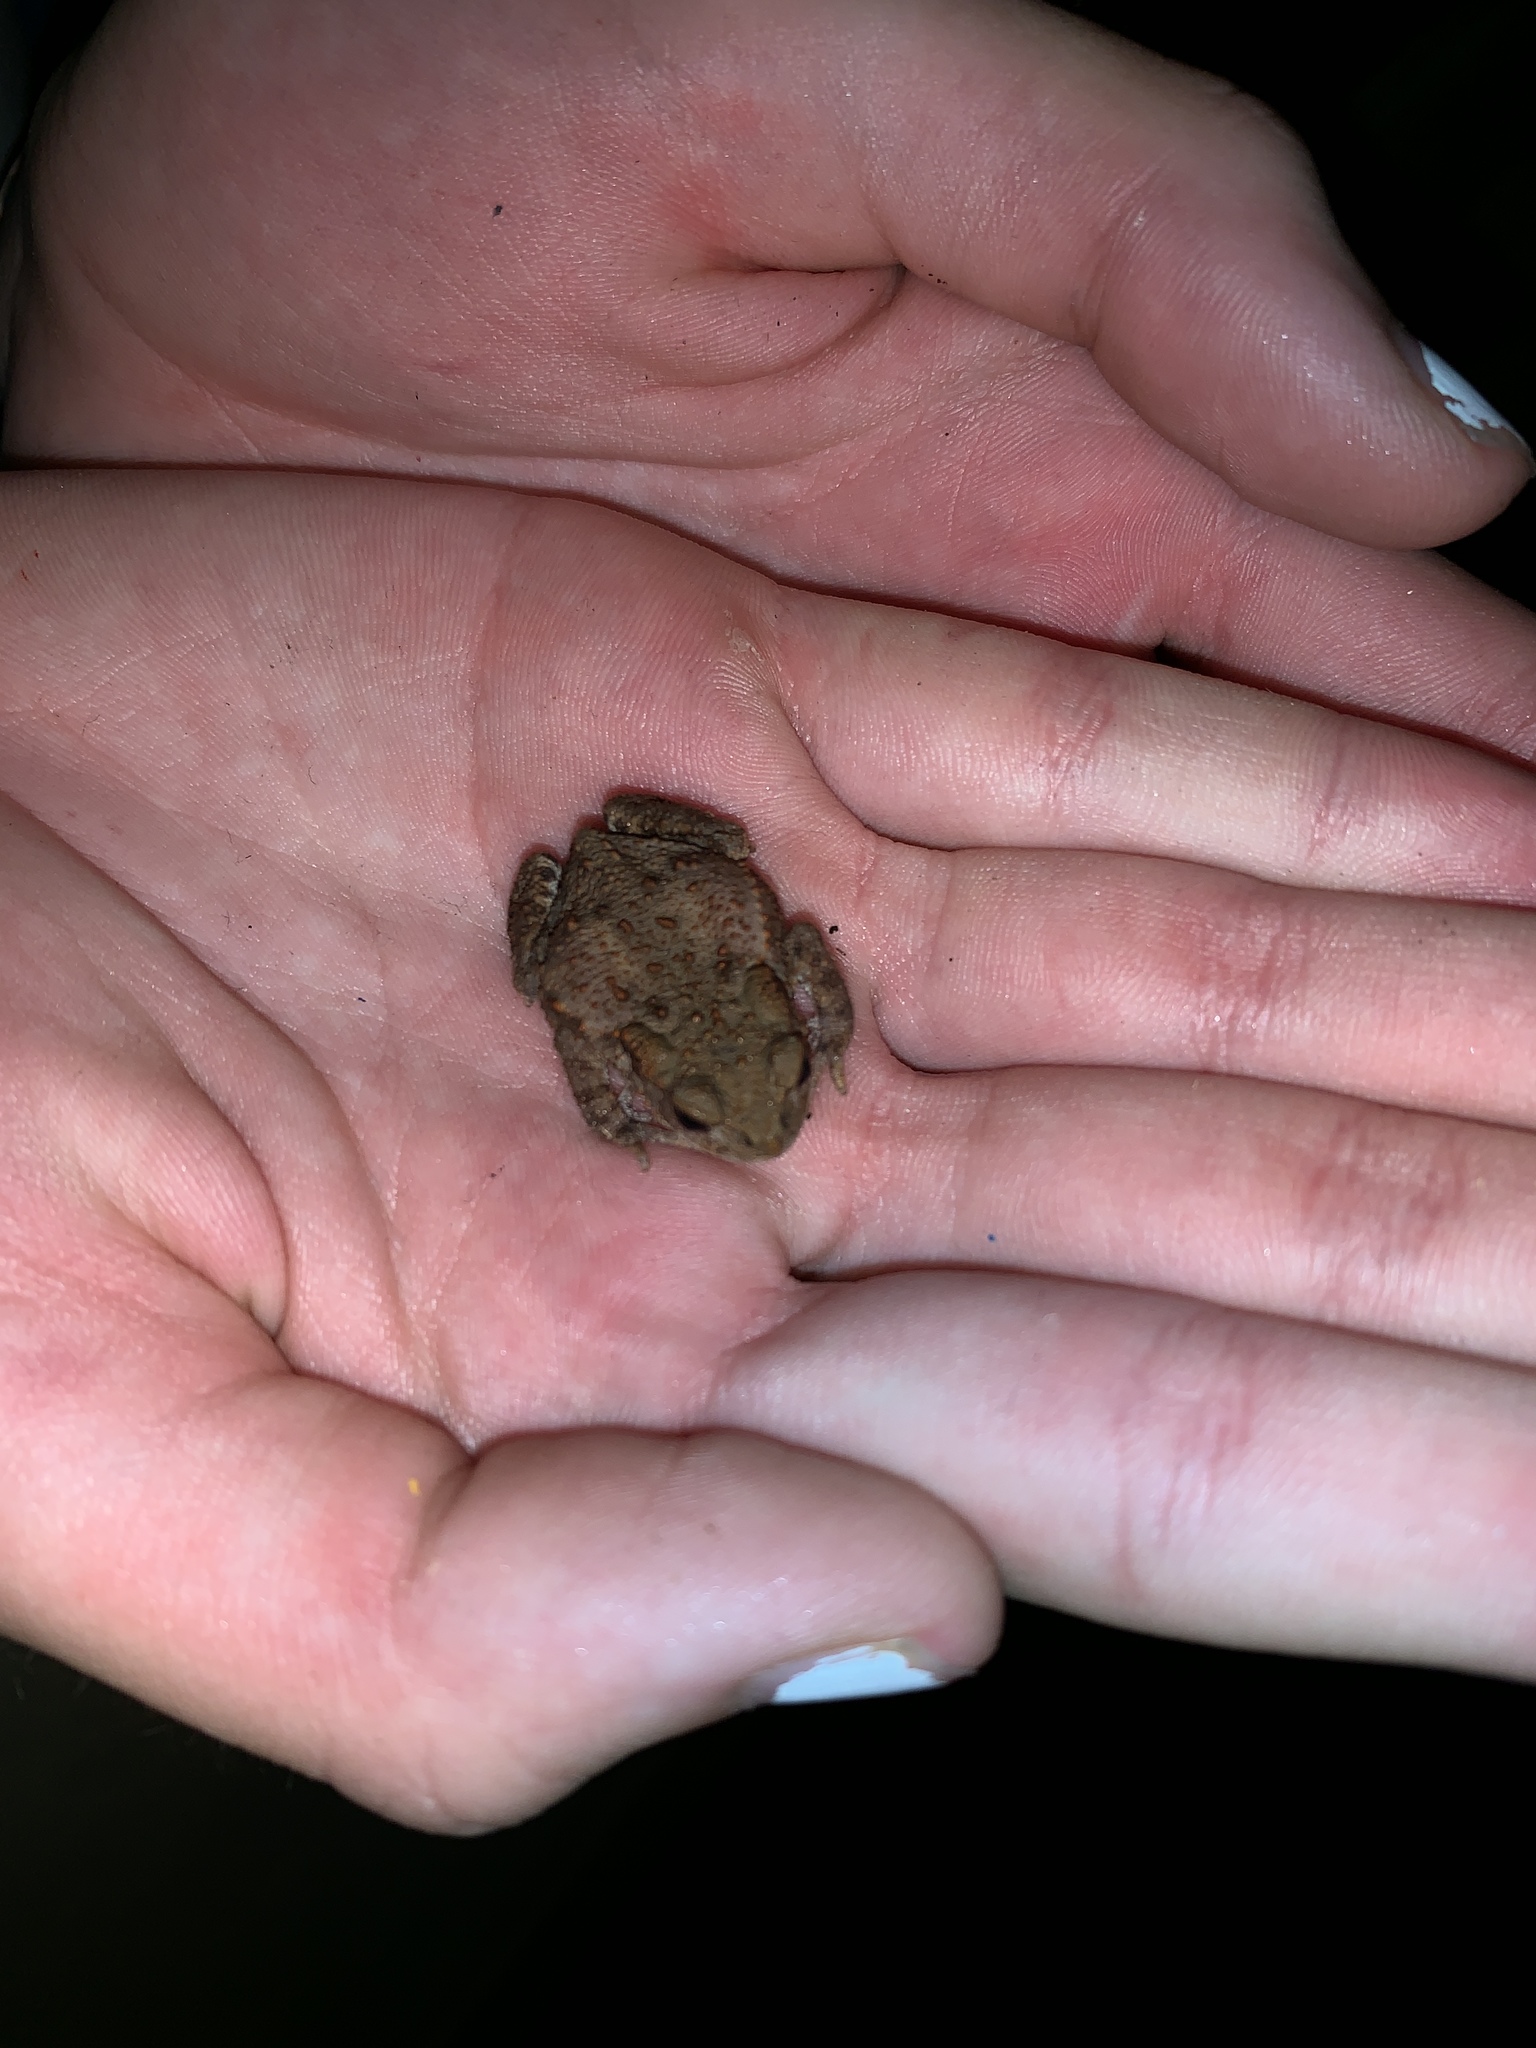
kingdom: Animalia
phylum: Chordata
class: Amphibia
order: Anura
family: Bufonidae
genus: Bufo
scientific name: Bufo bufo
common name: Common toad
